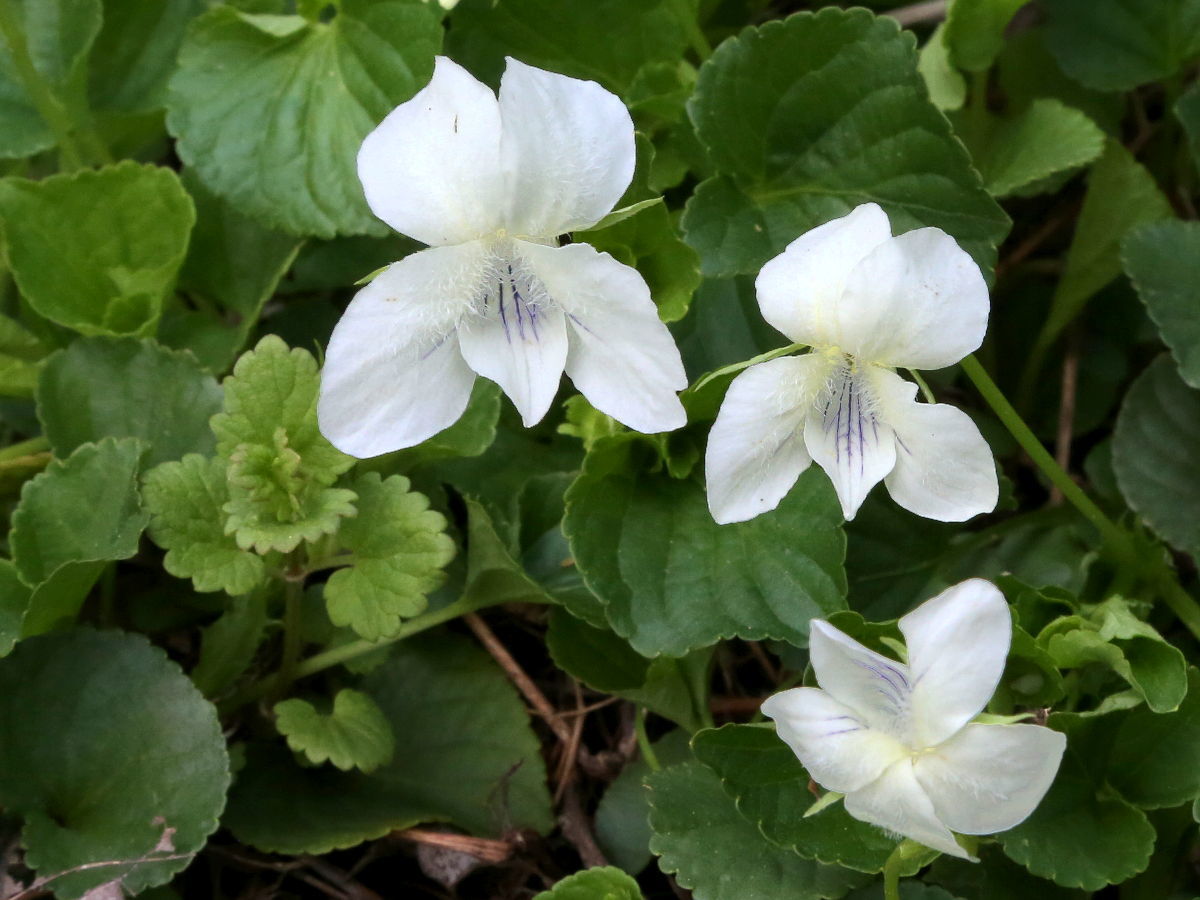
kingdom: Plantae
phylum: Tracheophyta
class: Magnoliopsida
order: Malpighiales
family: Violaceae
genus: Viola
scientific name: Viola striata
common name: Cream violet
